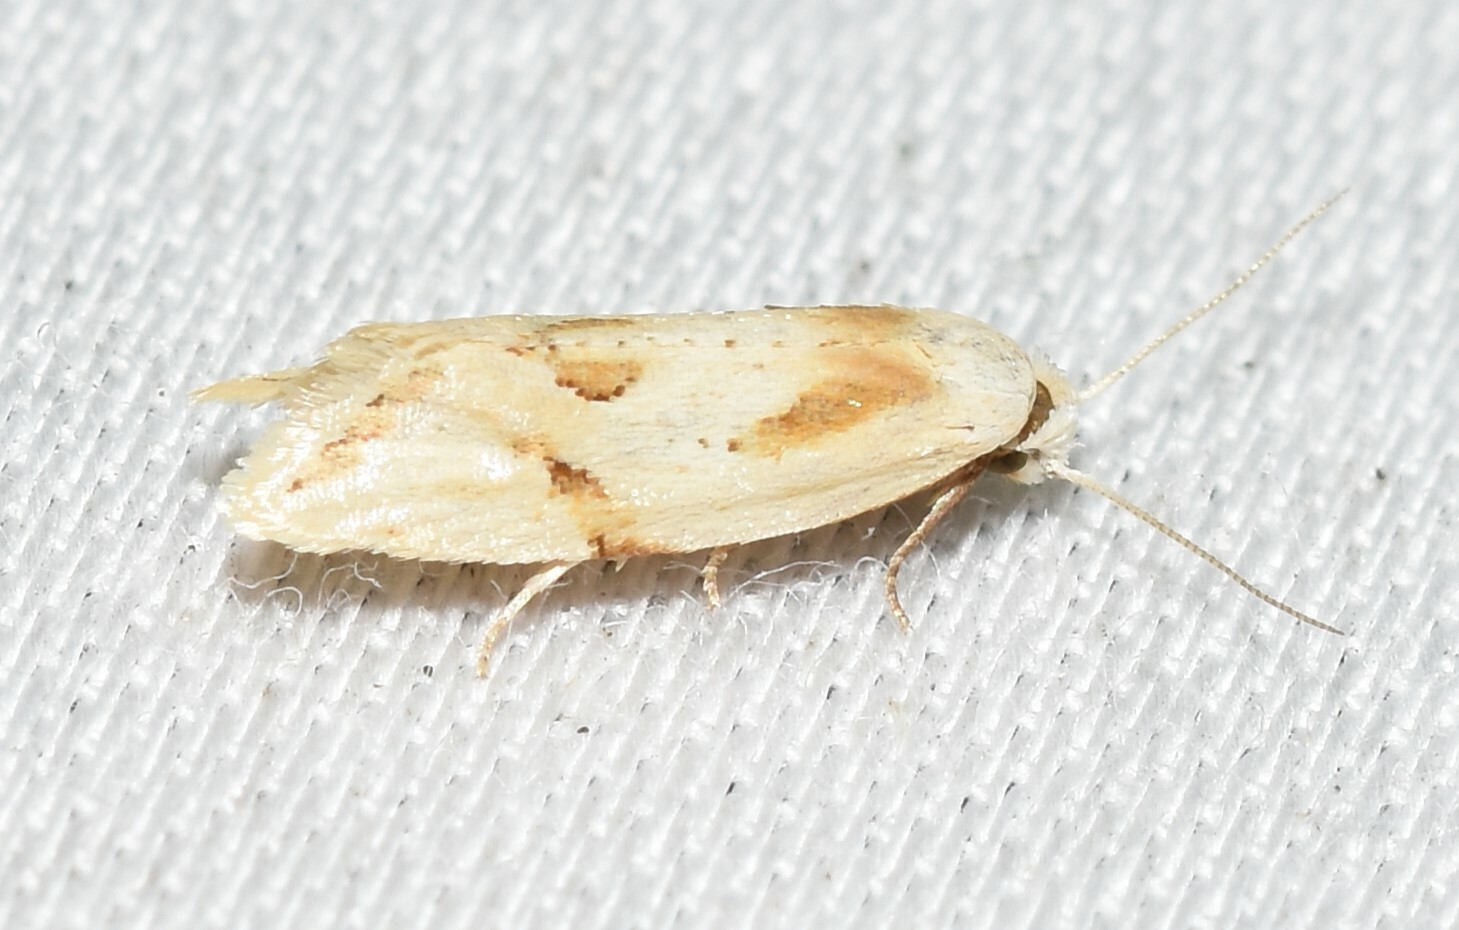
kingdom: Animalia
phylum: Arthropoda
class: Insecta
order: Lepidoptera
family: Tortricidae
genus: Aethes
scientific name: Aethes seriatana
